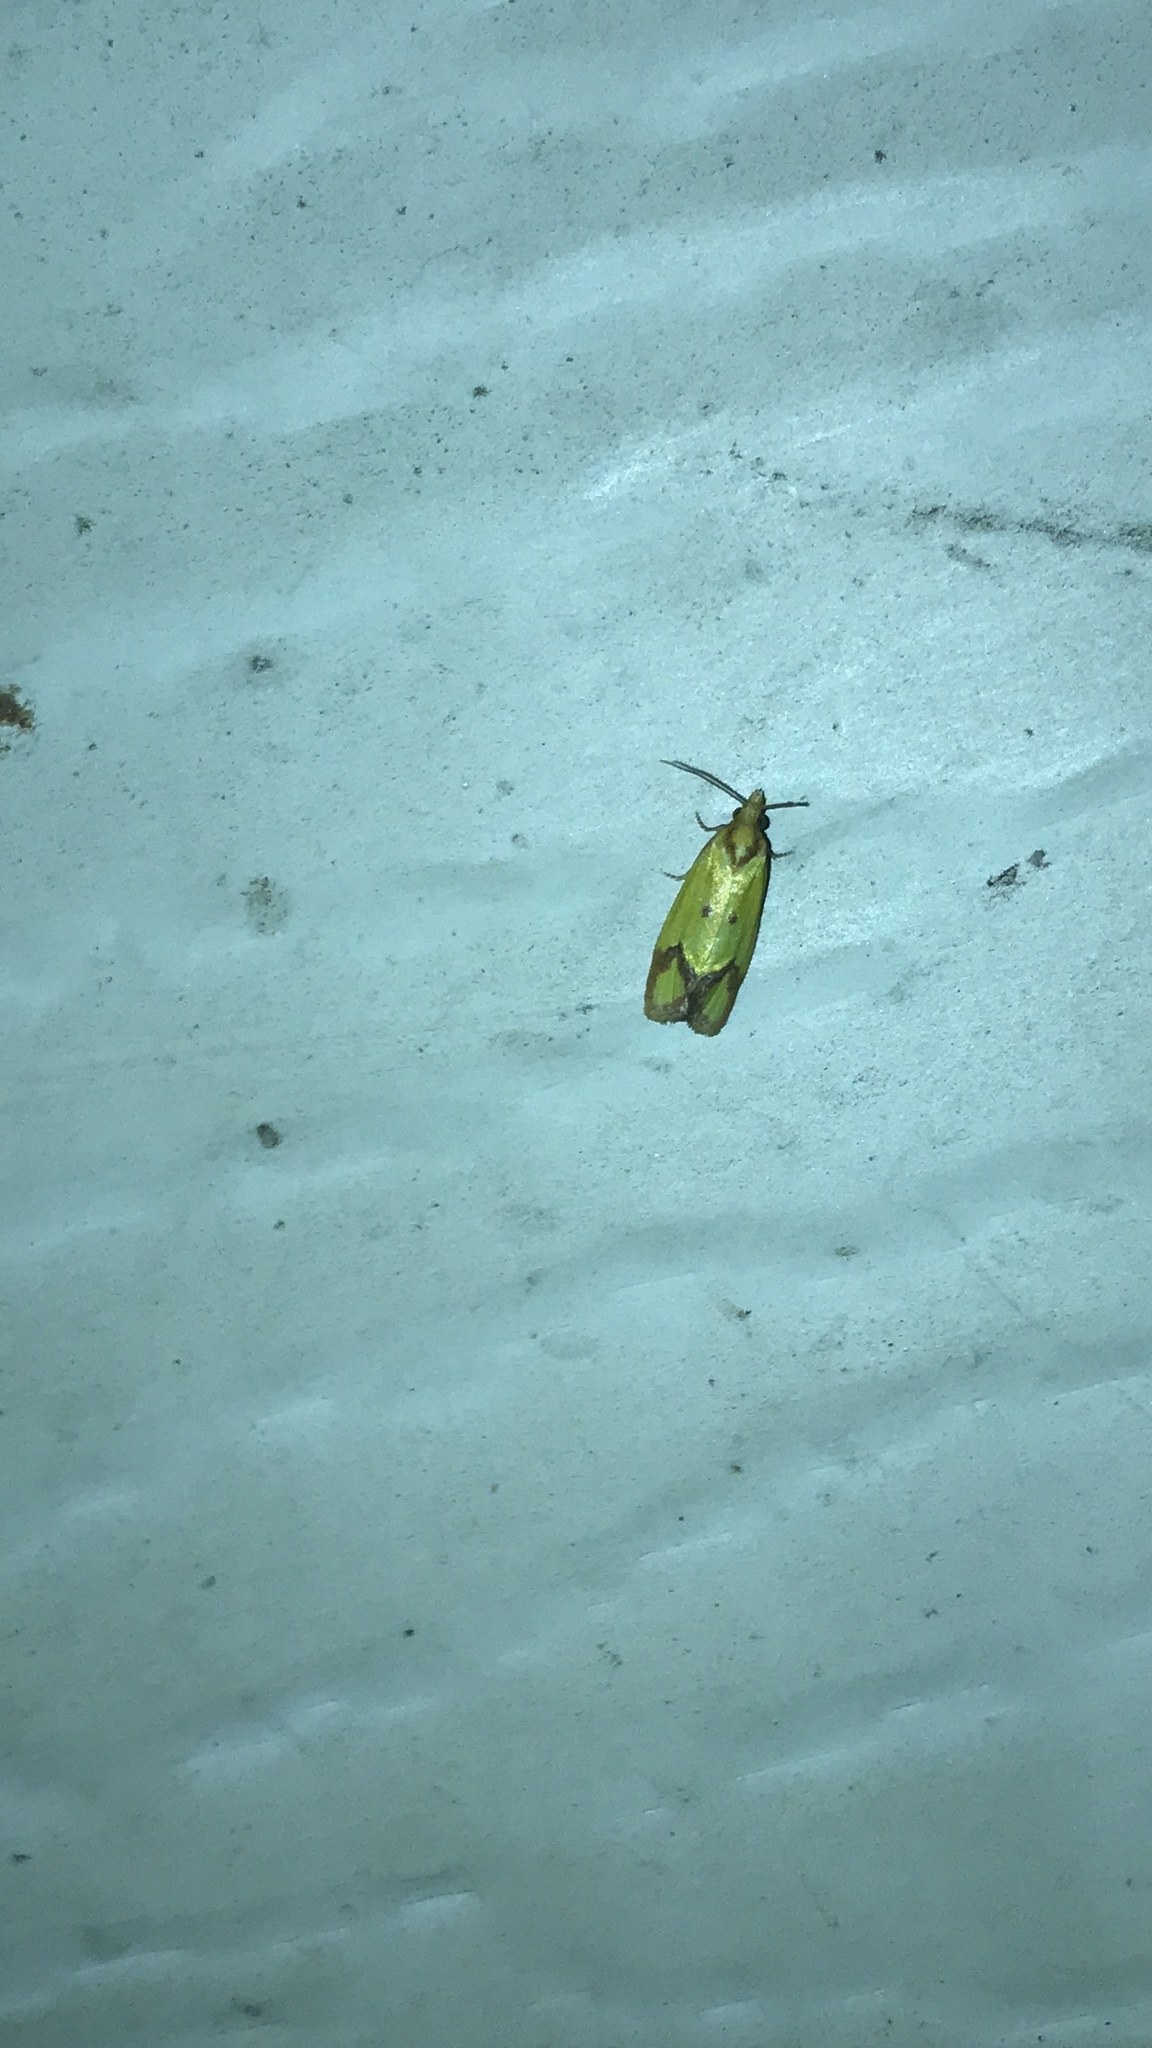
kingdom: Animalia
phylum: Arthropoda
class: Insecta
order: Lepidoptera
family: Tortricidae
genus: Agapeta
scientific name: Agapeta zoegana
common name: Sulfur knapweed root moth
